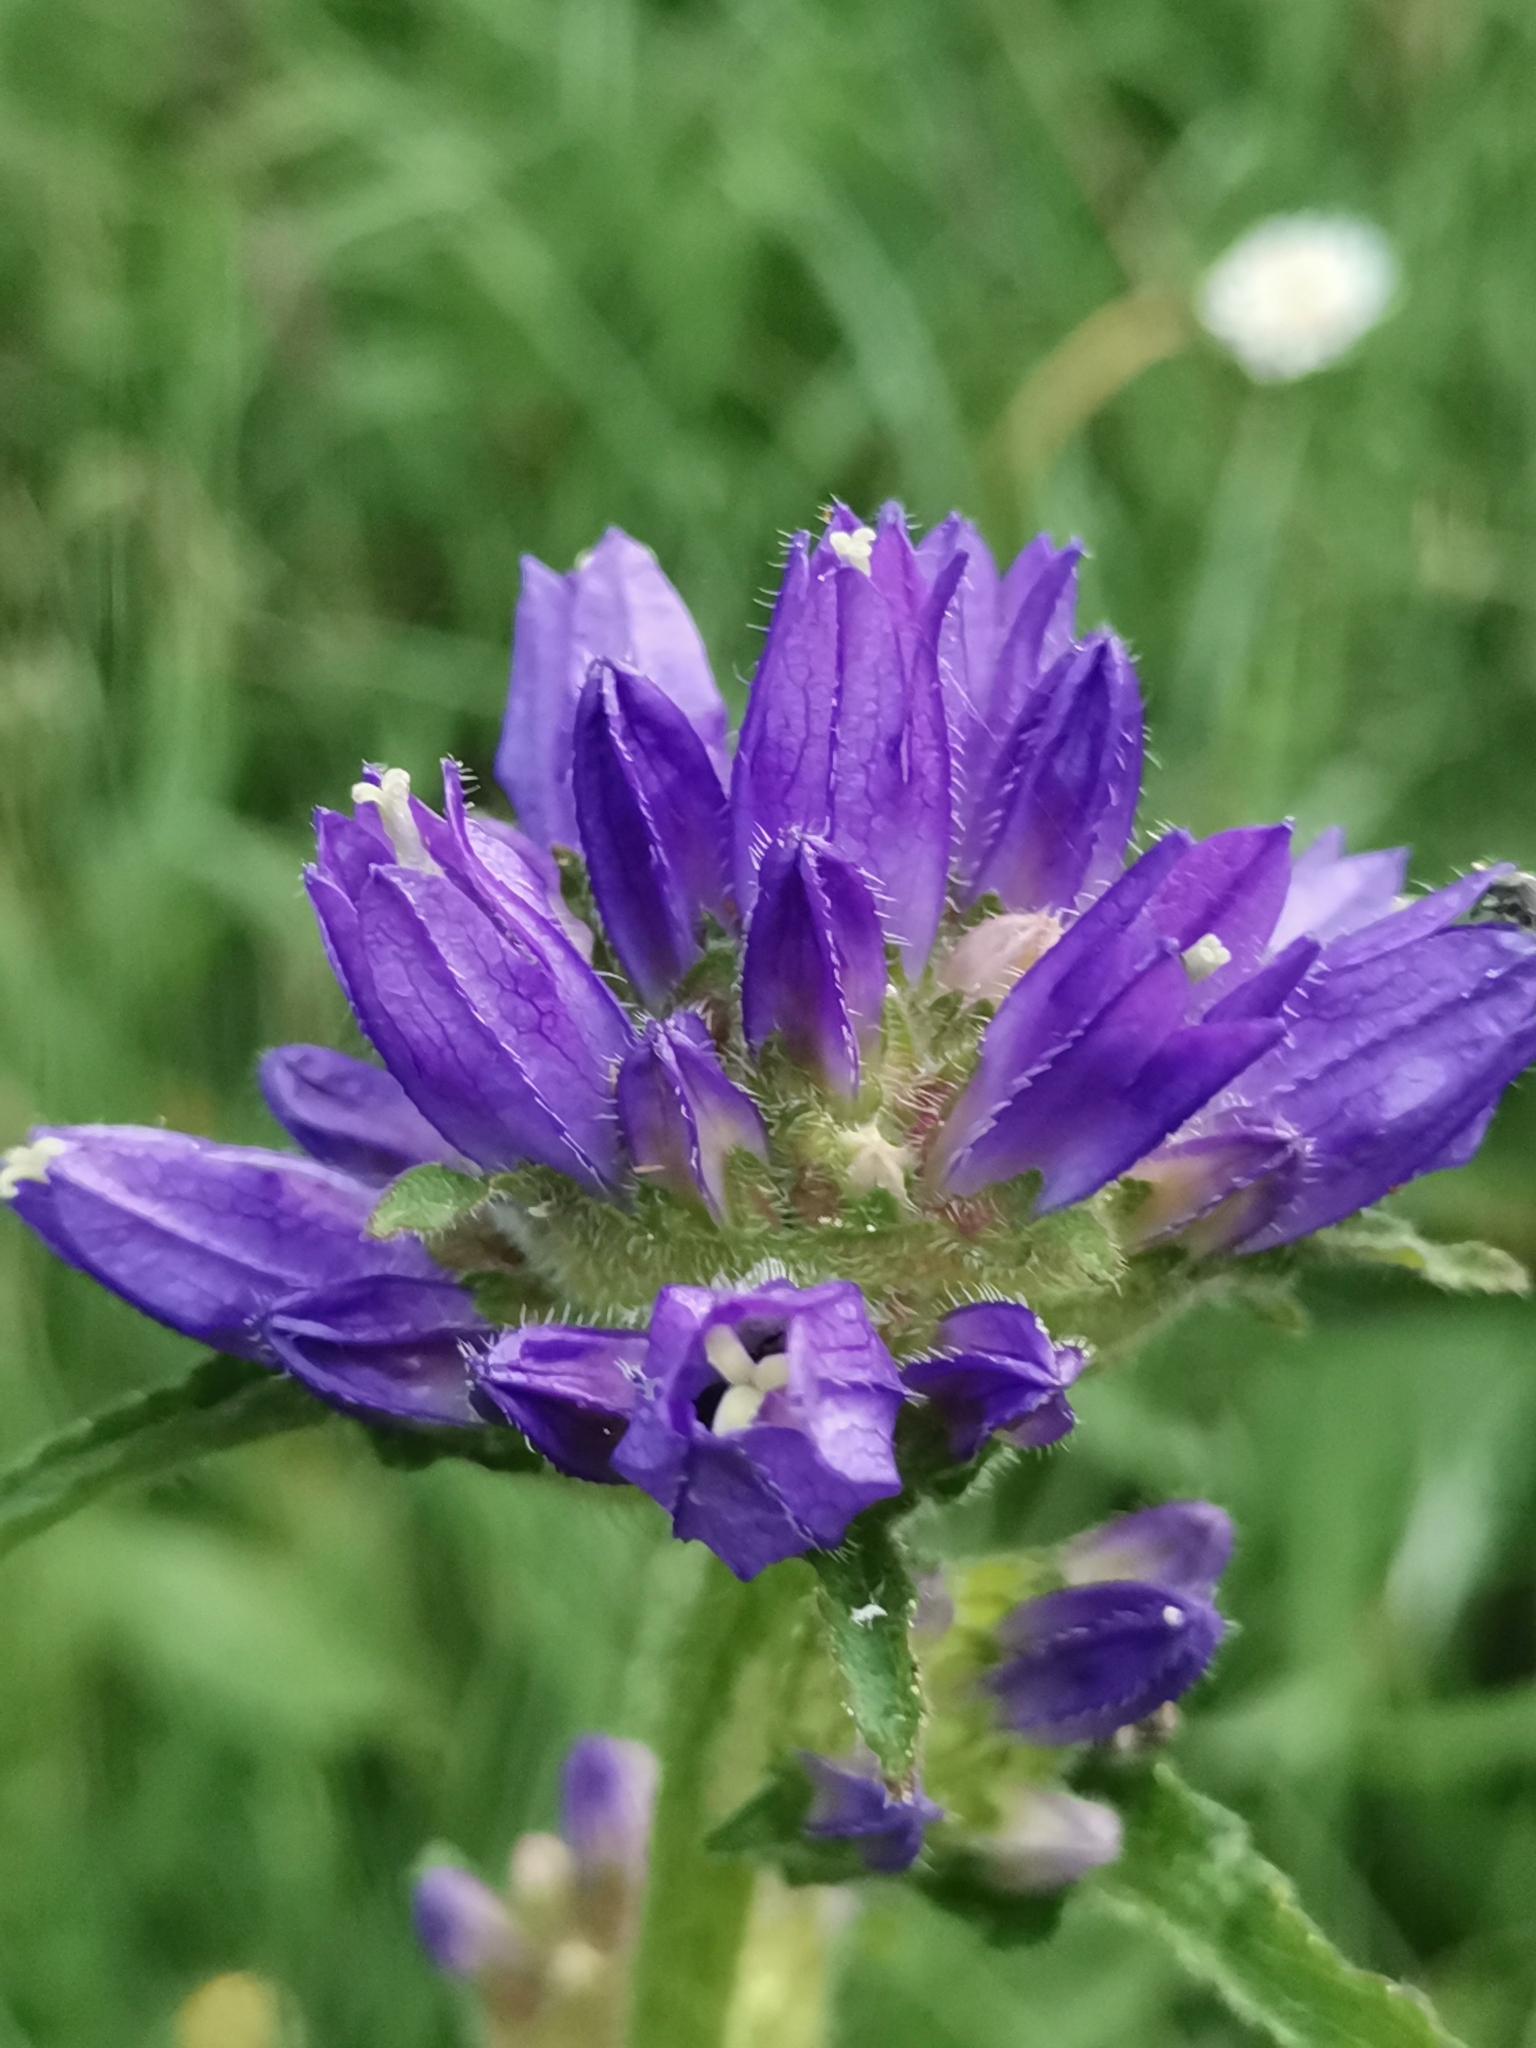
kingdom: Plantae
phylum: Tracheophyta
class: Magnoliopsida
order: Asterales
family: Campanulaceae
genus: Campanula
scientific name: Campanula cervicaria
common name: Bristly bellflower
